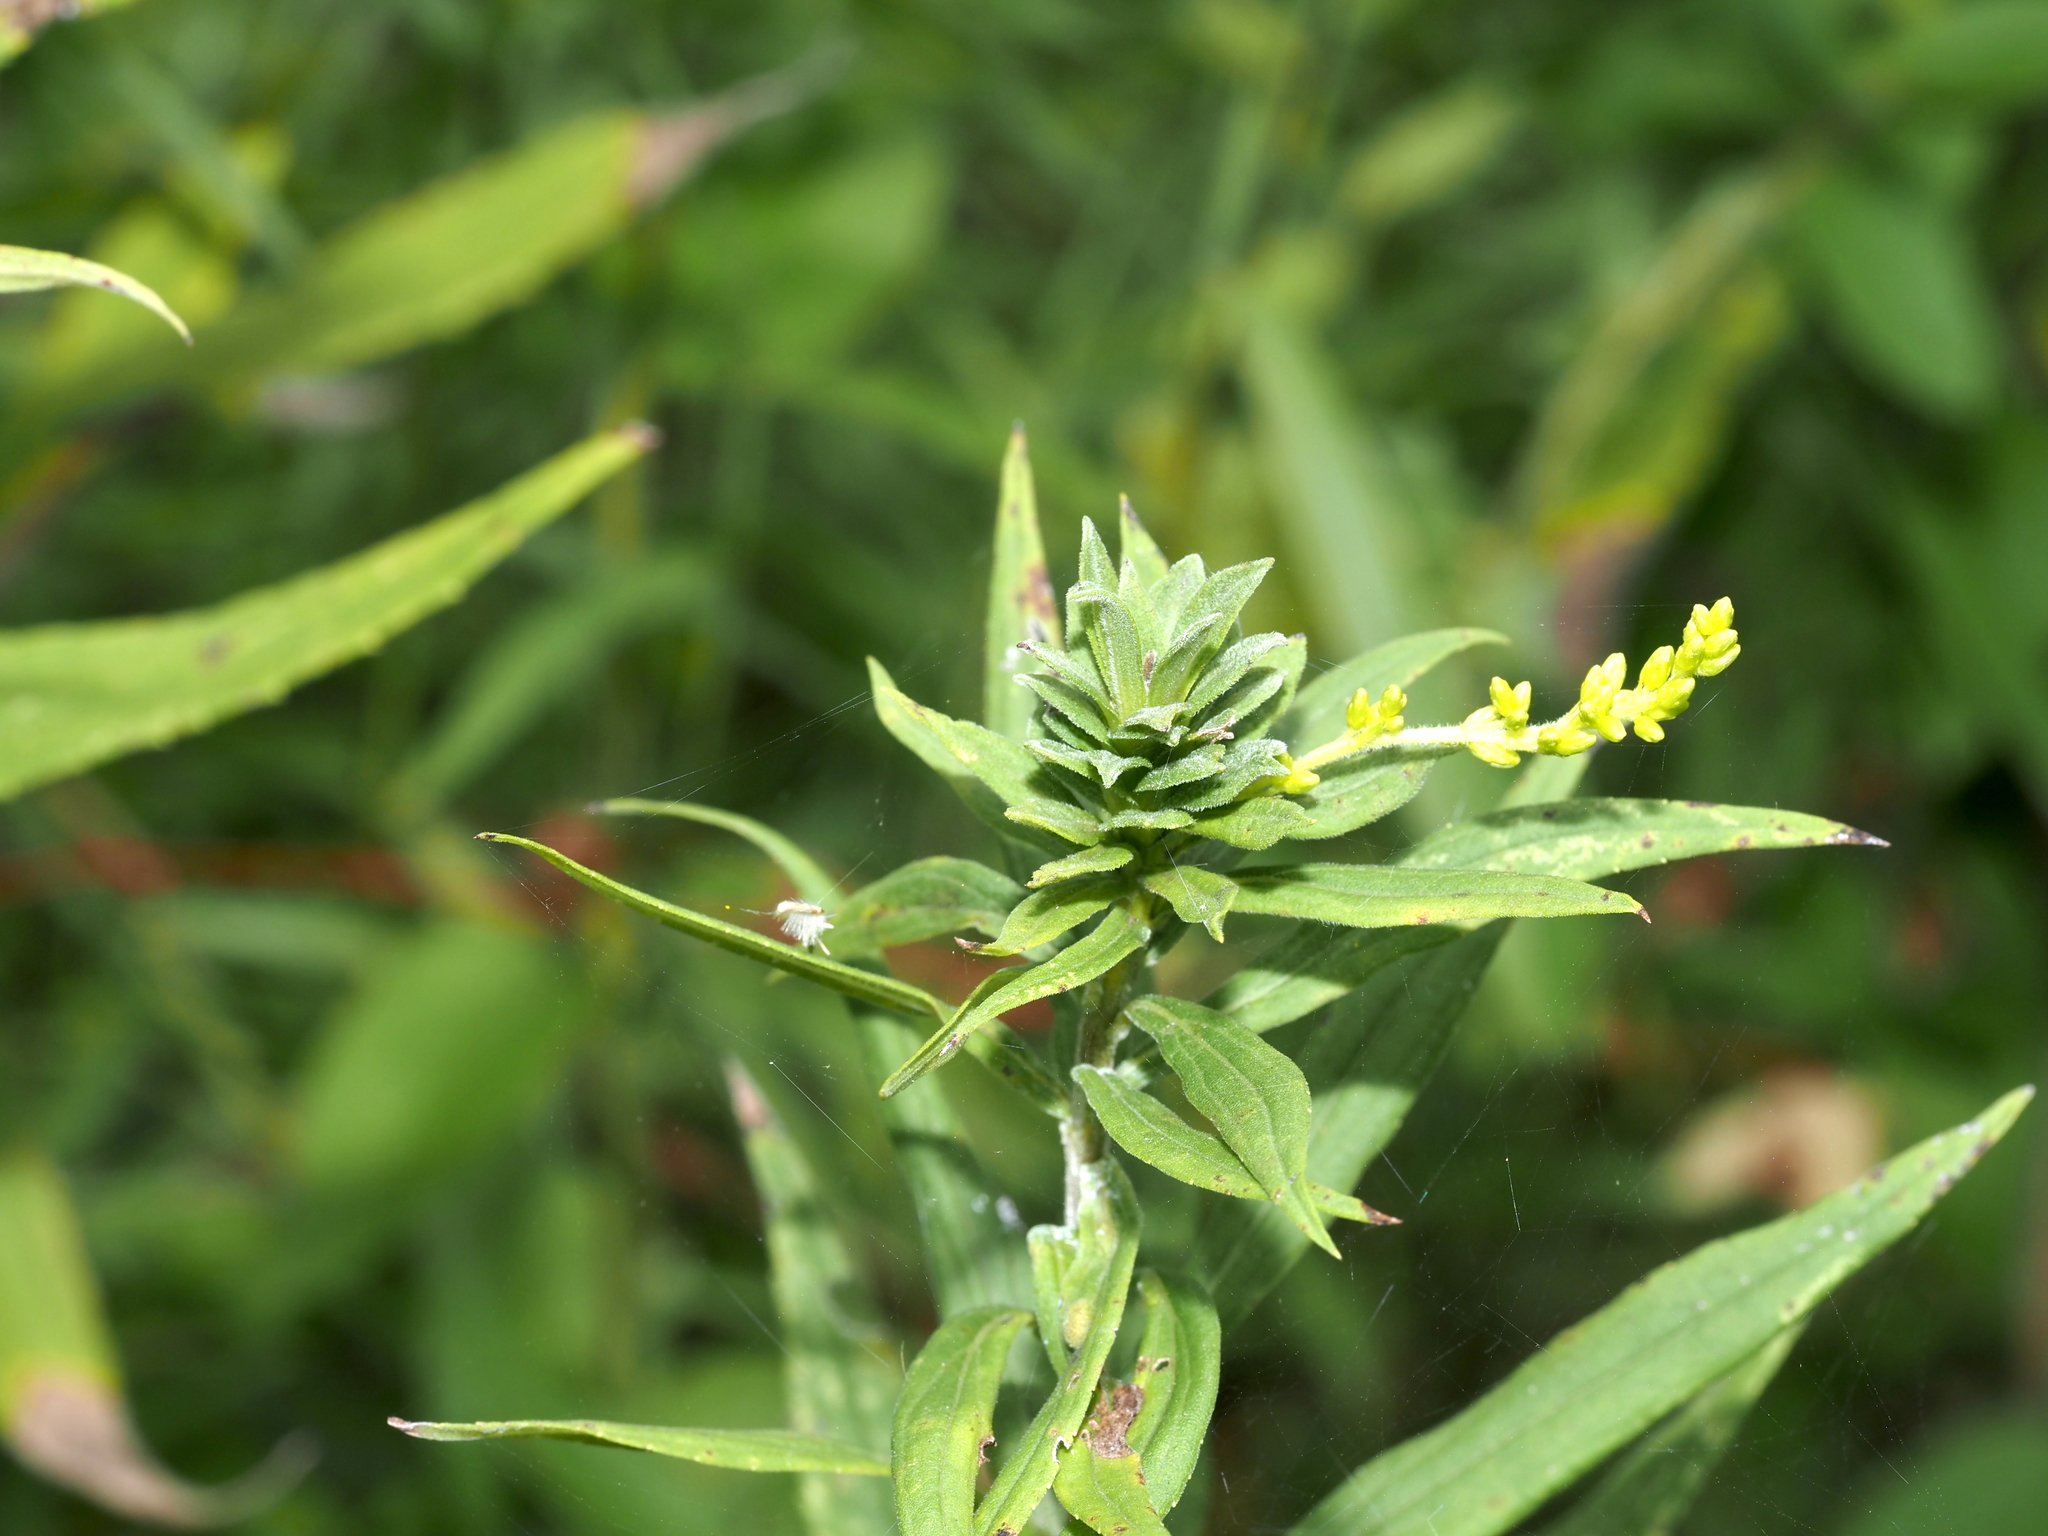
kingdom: Animalia
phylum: Arthropoda
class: Insecta
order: Diptera
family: Cecidomyiidae
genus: Asphondylia
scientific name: Asphondylia solidaginis
